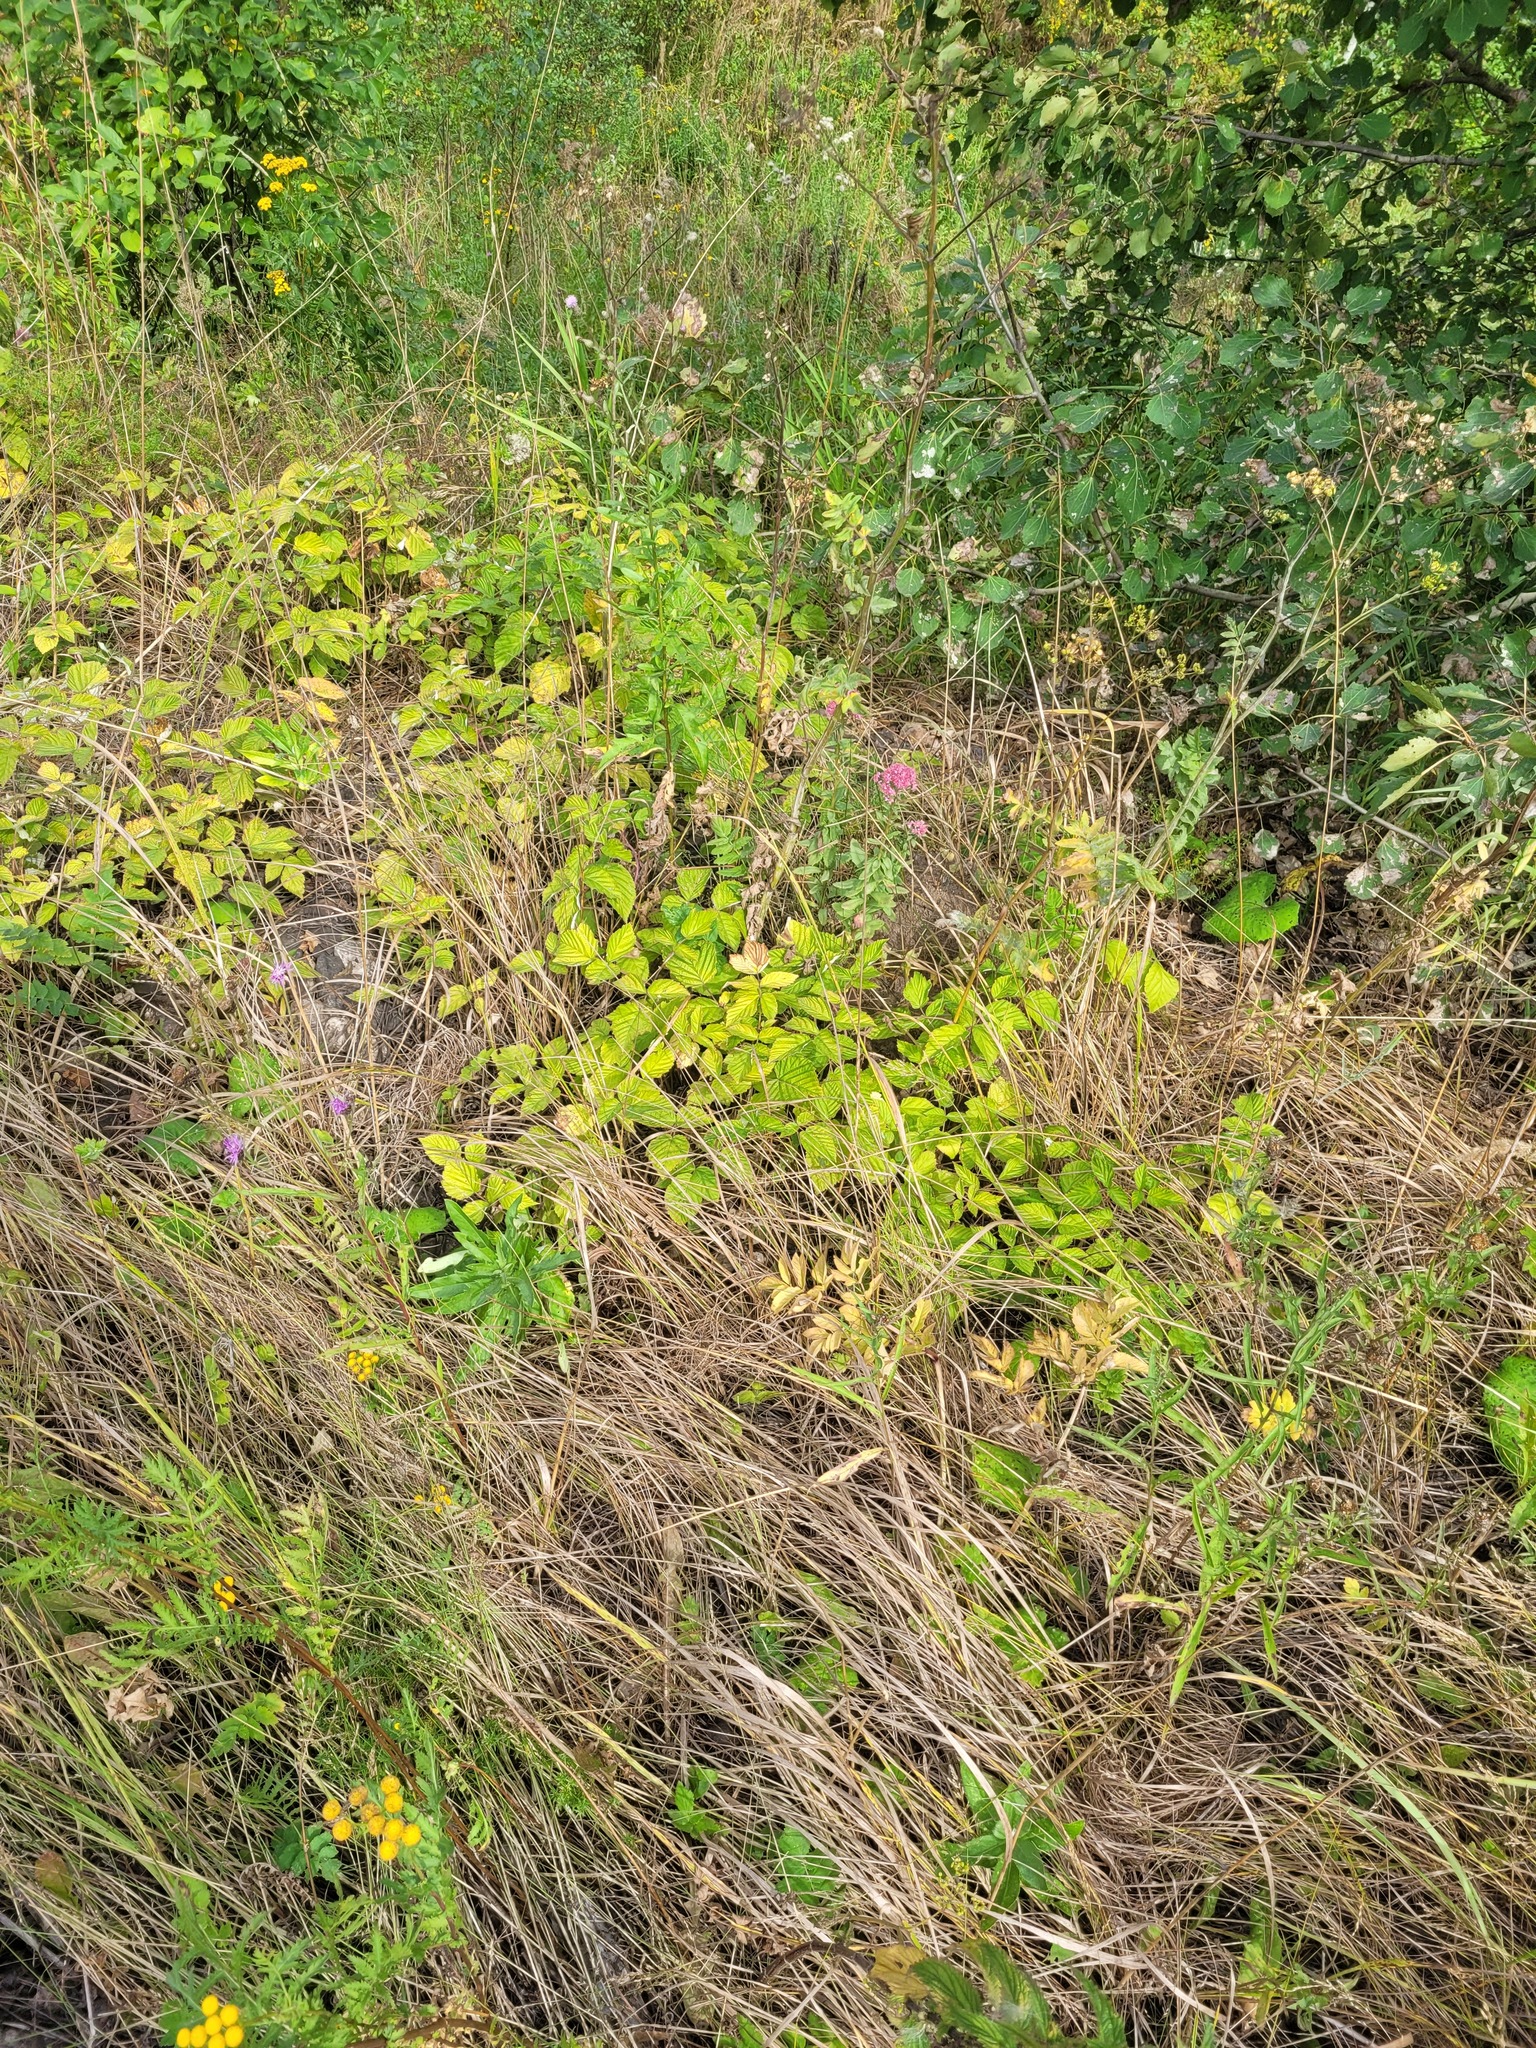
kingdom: Plantae
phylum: Tracheophyta
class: Magnoliopsida
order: Rosales
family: Rosaceae
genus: Rubus
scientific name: Rubus idaeus
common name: Raspberry
